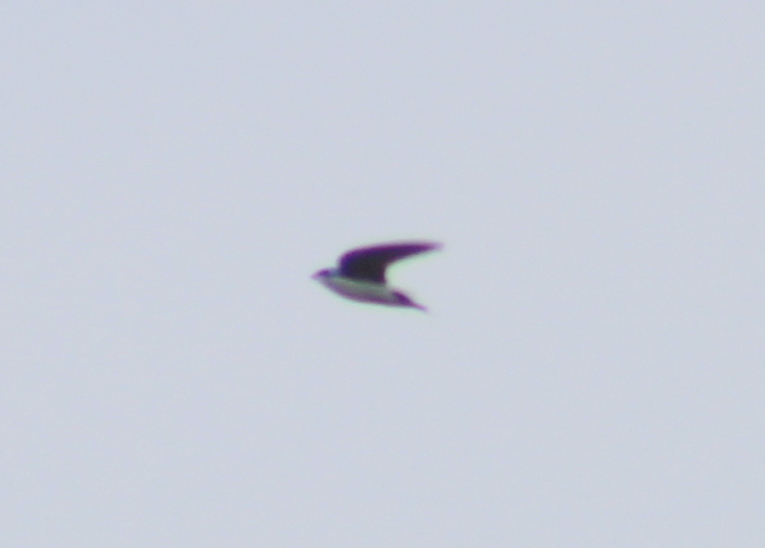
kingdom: Animalia
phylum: Chordata
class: Aves
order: Passeriformes
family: Hirundinidae
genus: Tachycineta
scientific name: Tachycineta bicolor
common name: Tree swallow
